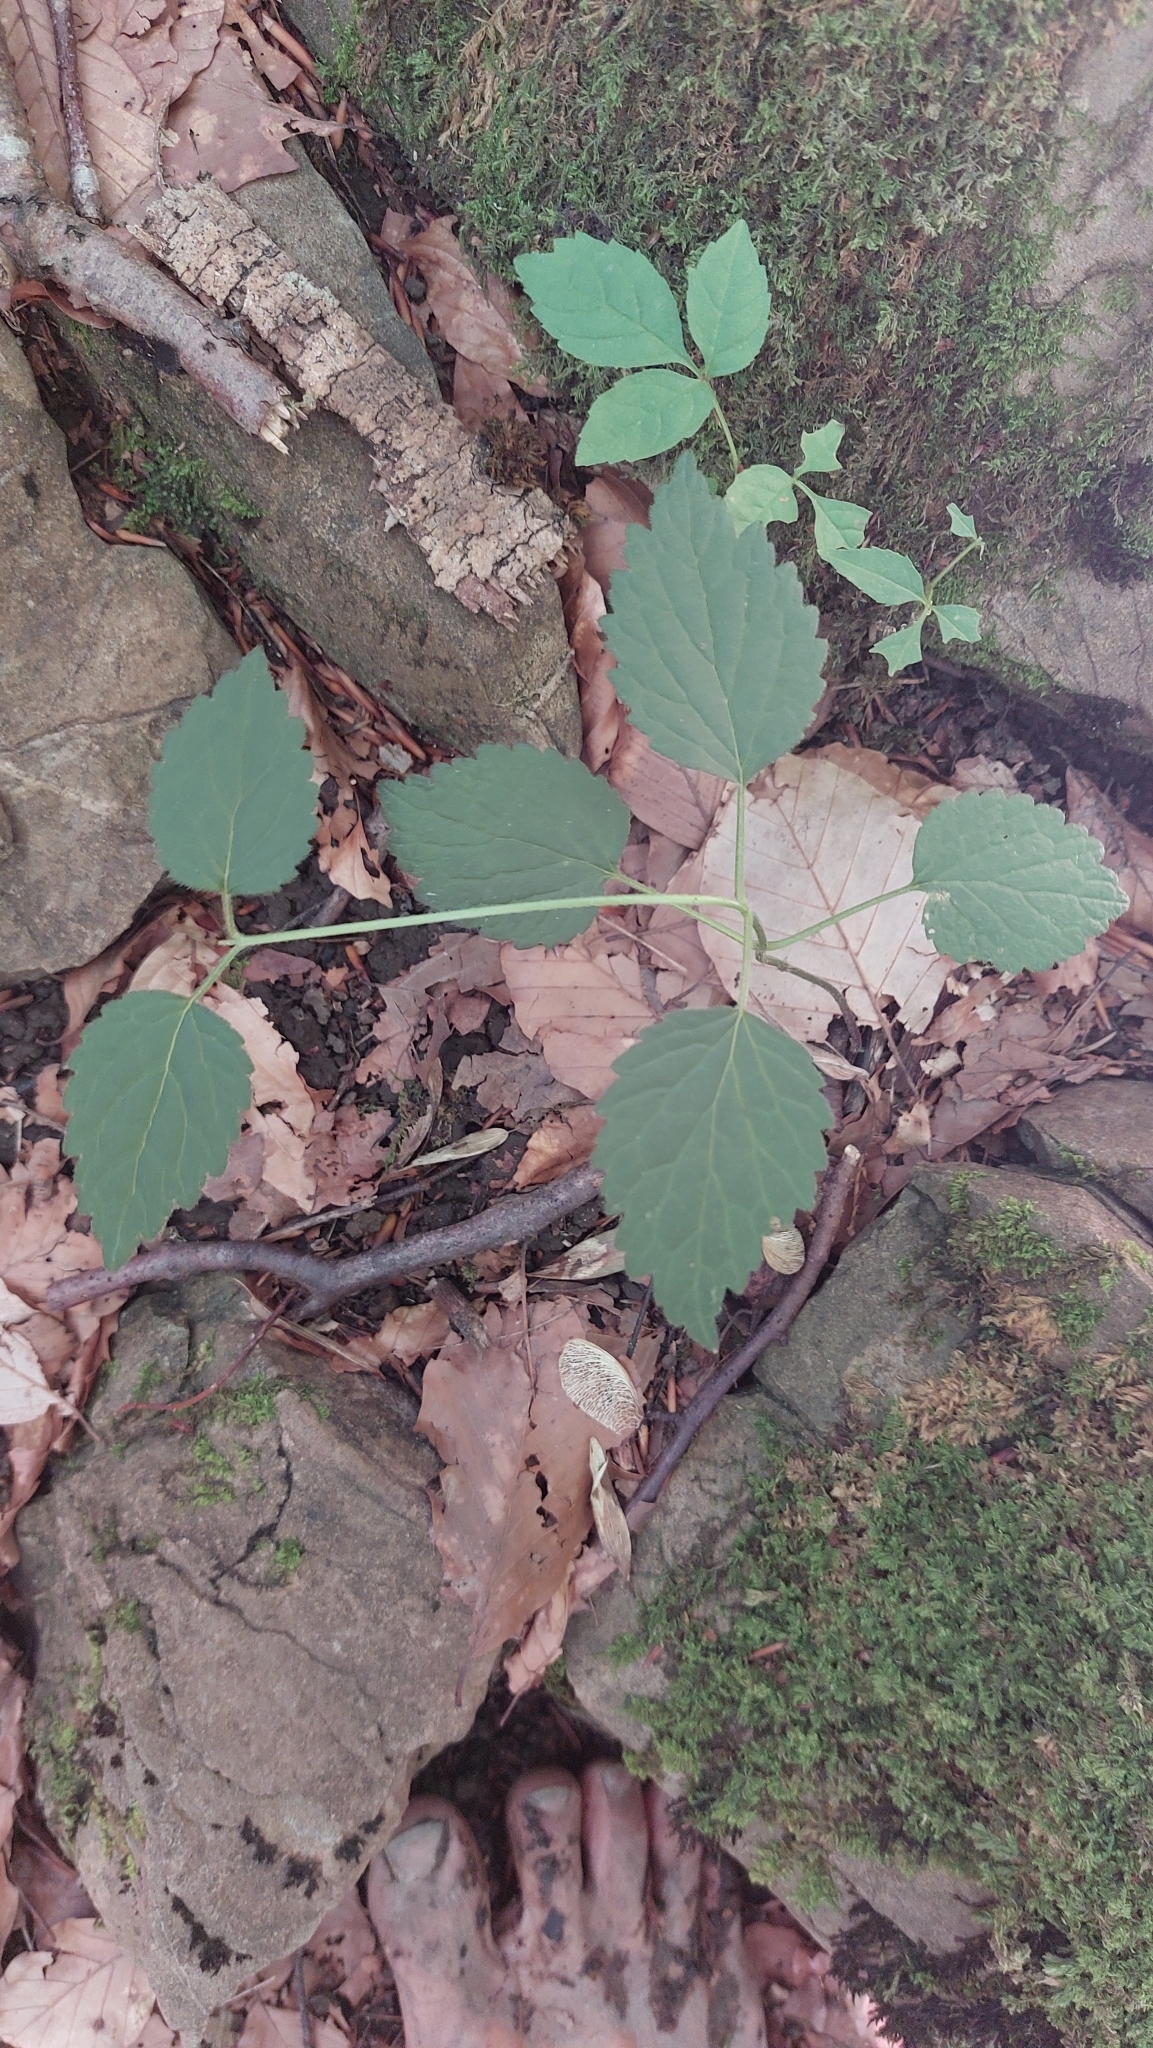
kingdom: Plantae
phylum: Tracheophyta
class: Magnoliopsida
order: Lamiales
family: Lamiaceae
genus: Lamium
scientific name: Lamium galeobdolon
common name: Yellow archangel
